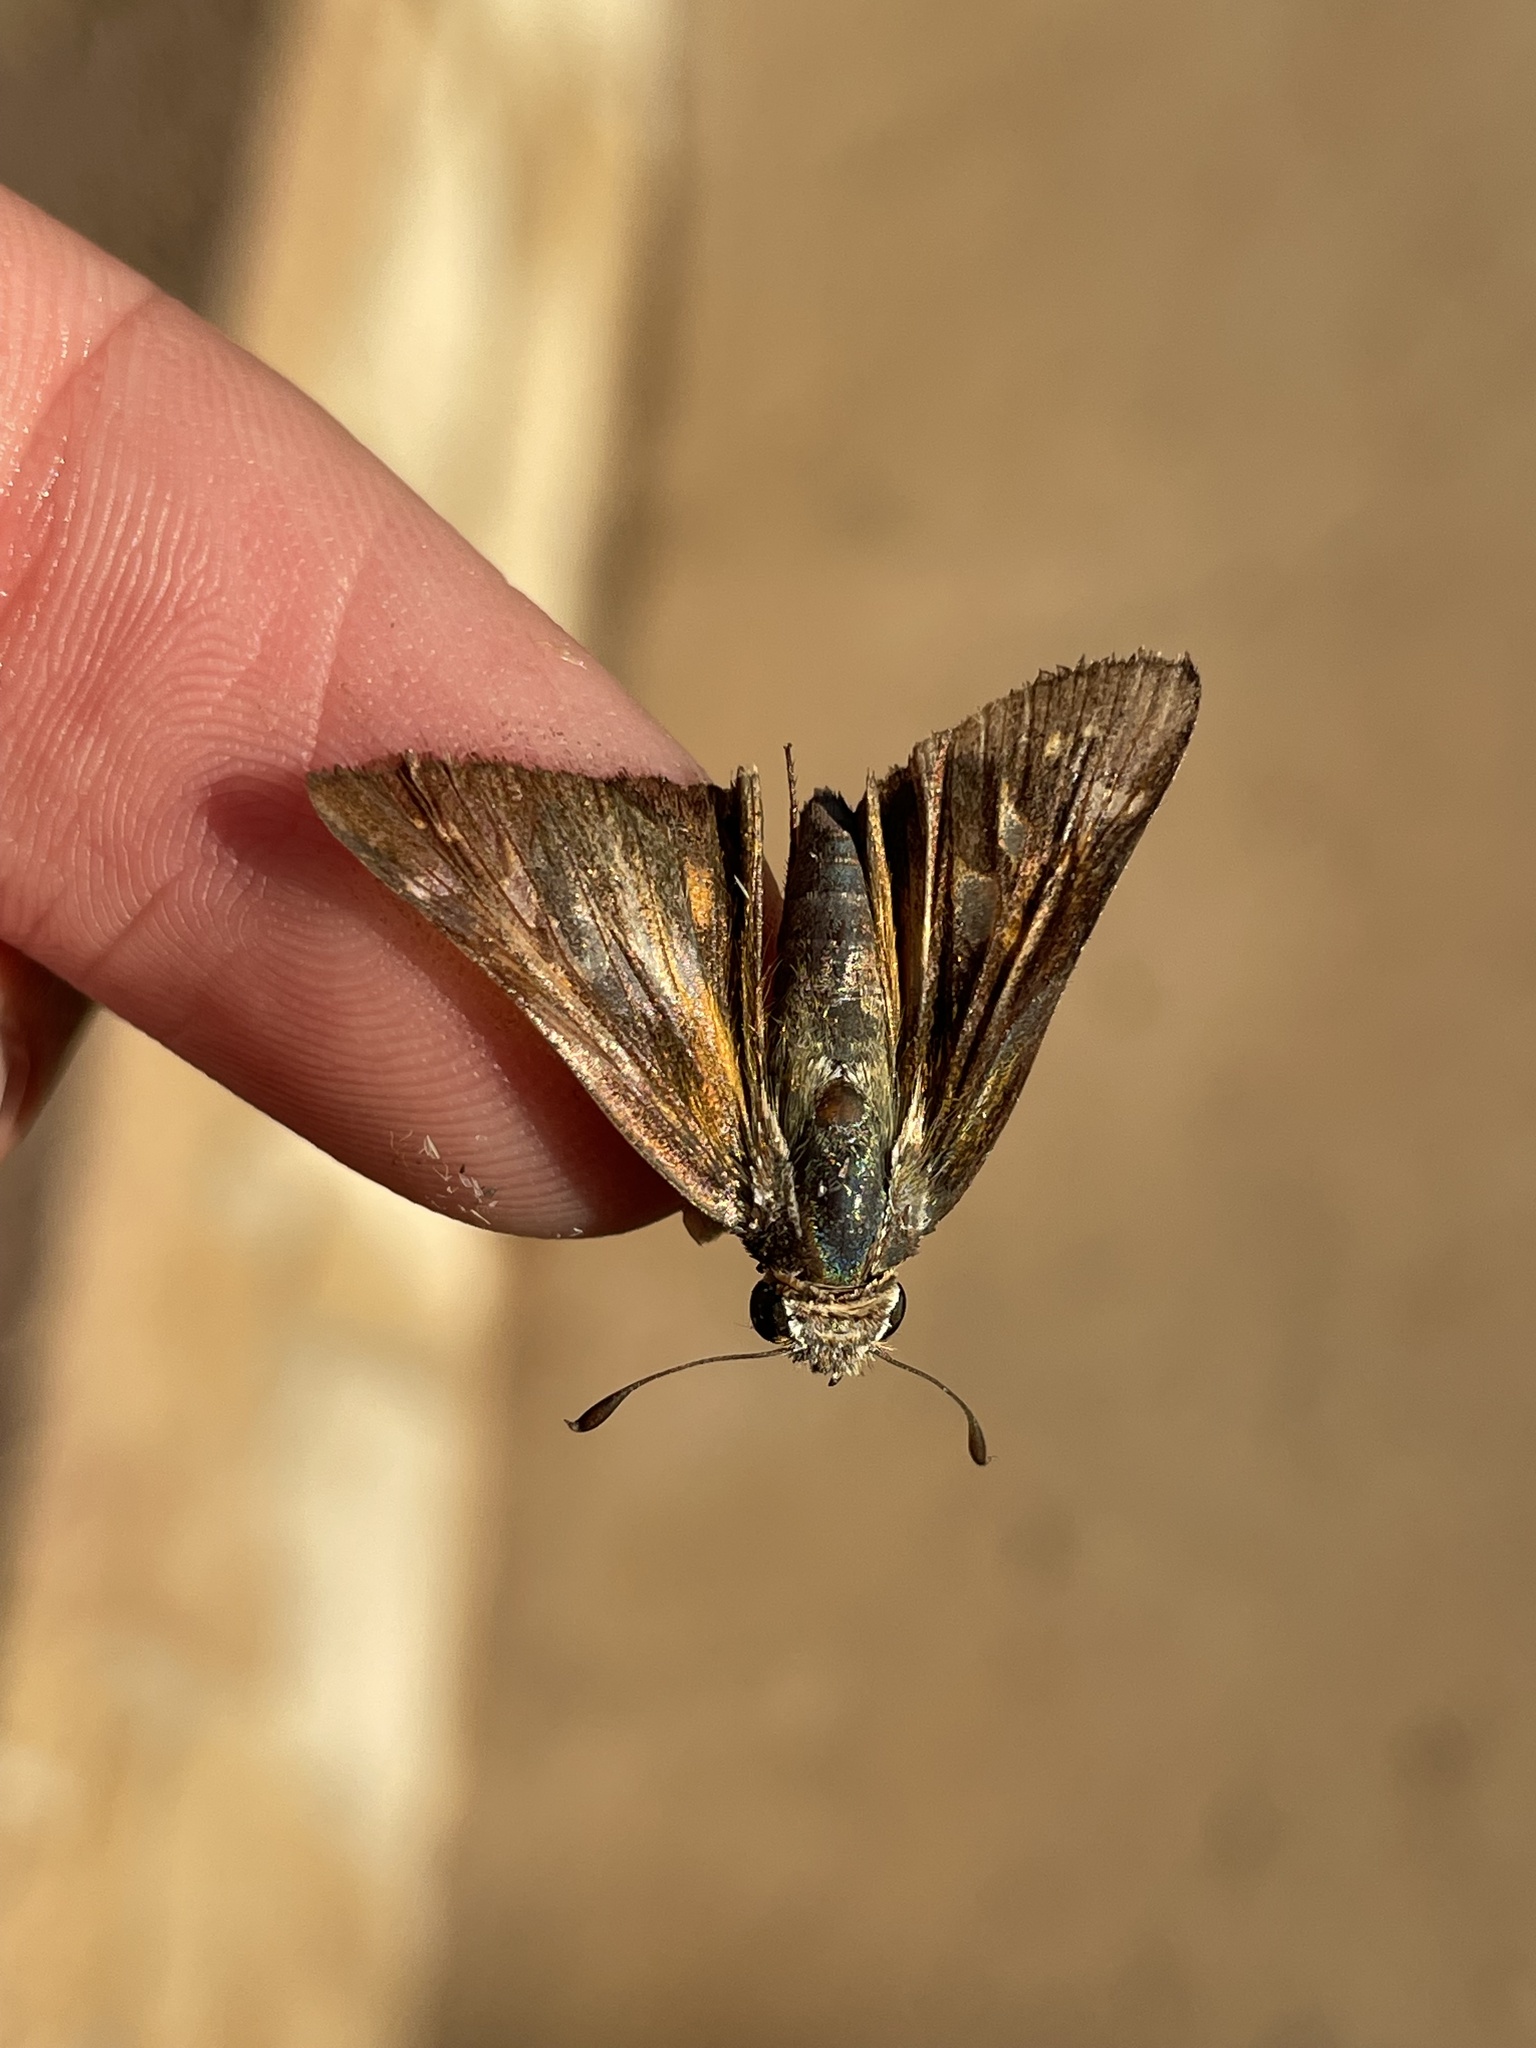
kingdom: Animalia
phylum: Arthropoda
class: Insecta
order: Lepidoptera
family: Hesperiidae
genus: Atalopedes
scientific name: Atalopedes
